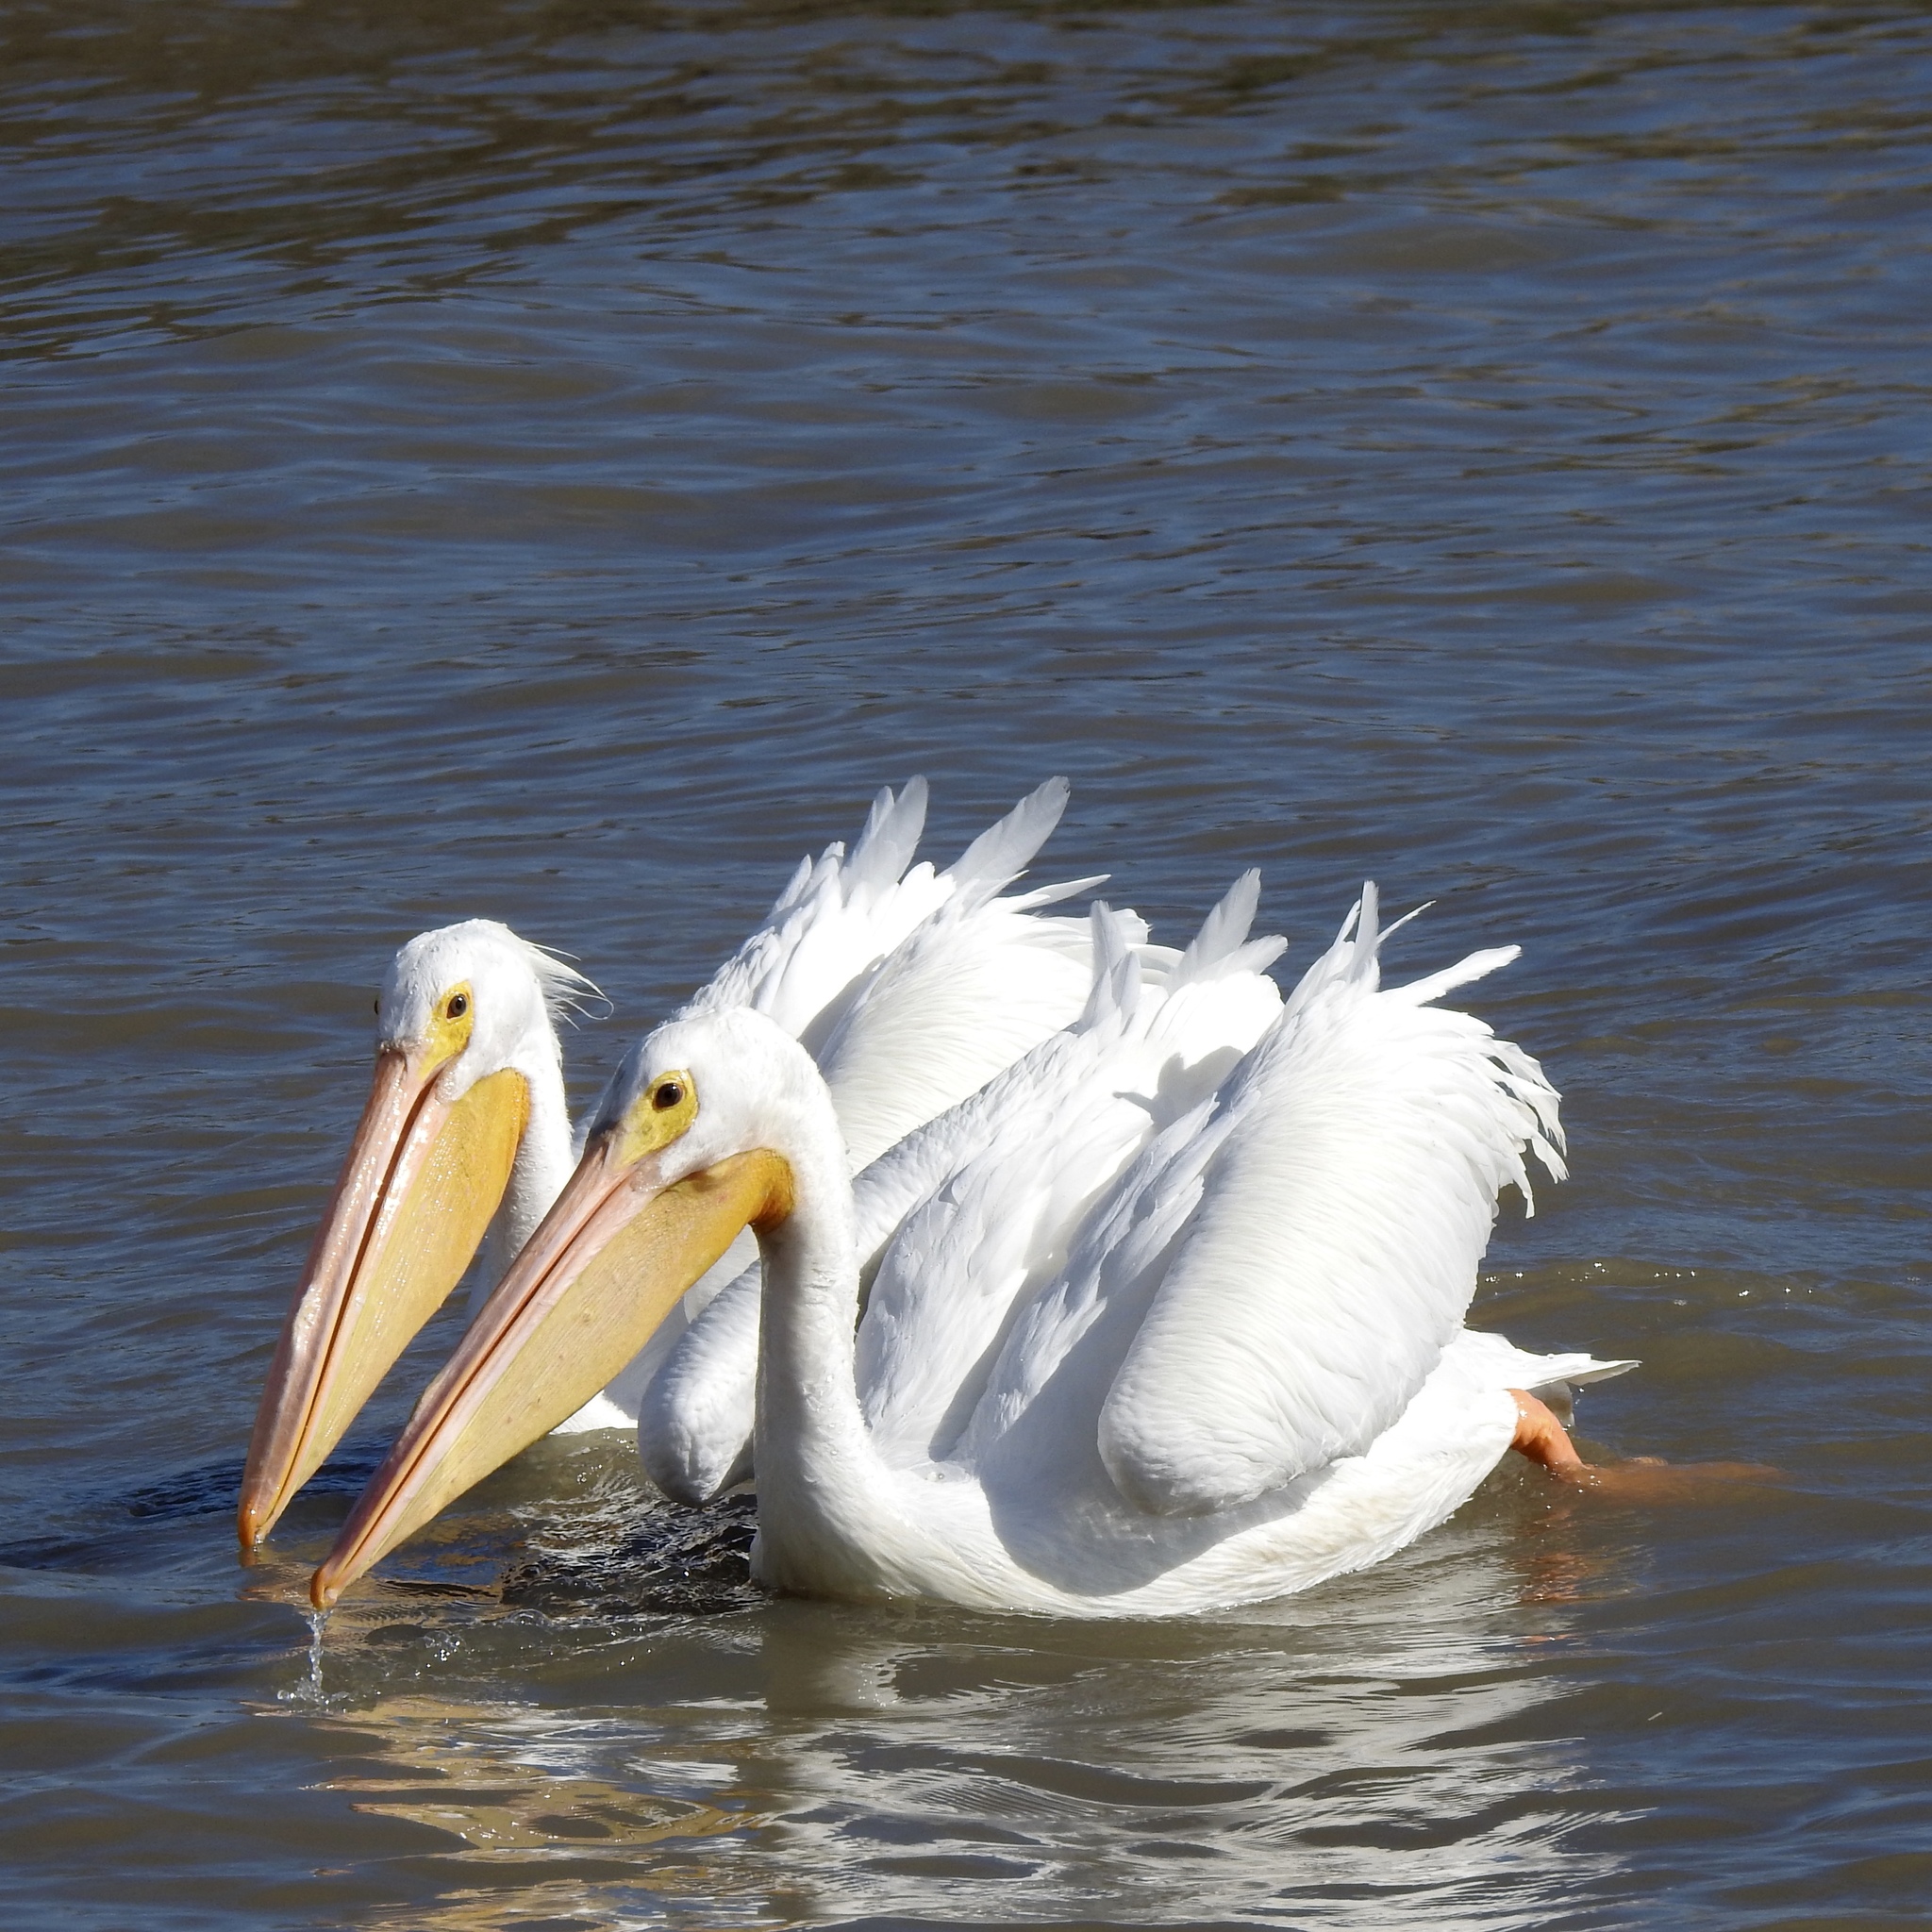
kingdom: Animalia
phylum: Chordata
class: Aves
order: Pelecaniformes
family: Pelecanidae
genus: Pelecanus
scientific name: Pelecanus erythrorhynchos
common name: American white pelican
